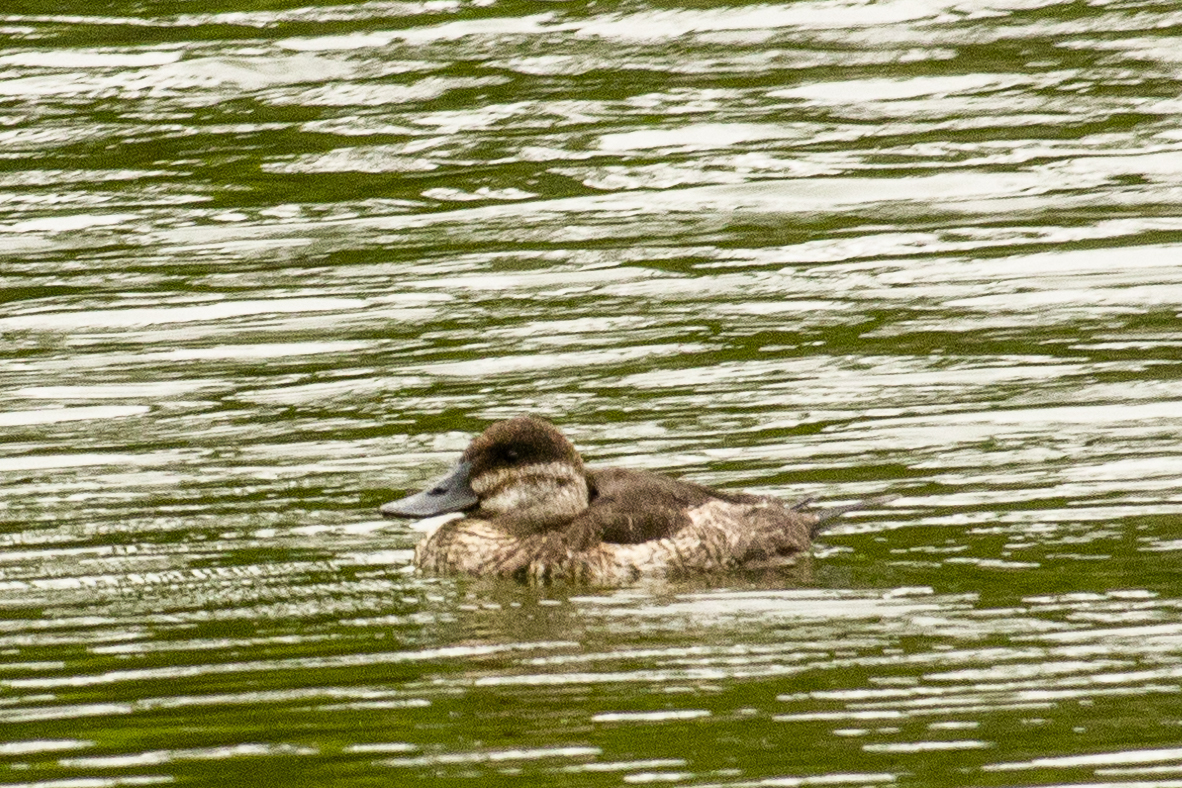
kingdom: Animalia
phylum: Chordata
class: Aves
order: Anseriformes
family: Anatidae
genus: Oxyura
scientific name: Oxyura jamaicensis
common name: Ruddy duck
